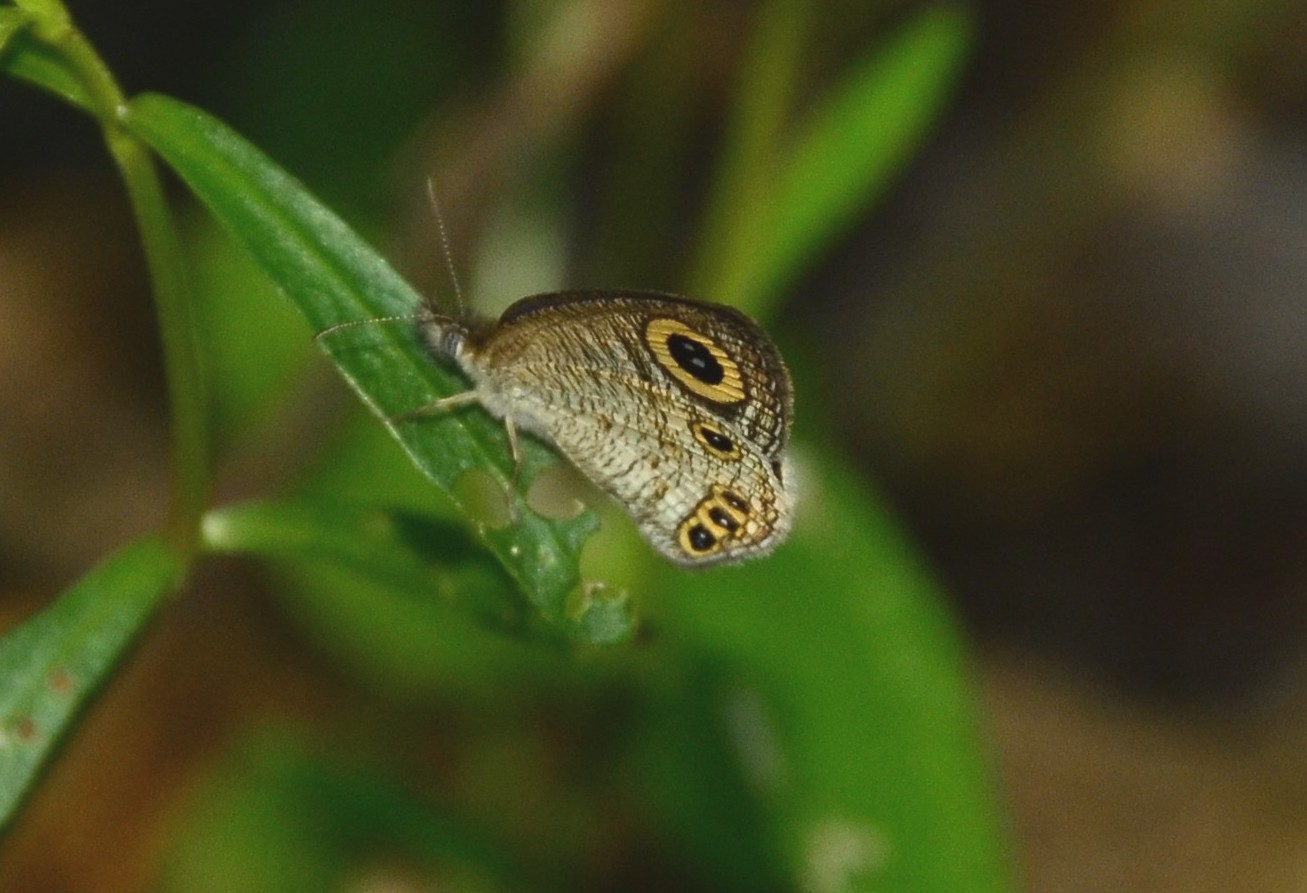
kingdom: Animalia
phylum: Arthropoda
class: Insecta
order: Lepidoptera
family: Nymphalidae
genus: Ypthima
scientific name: Ypthima huebneri
